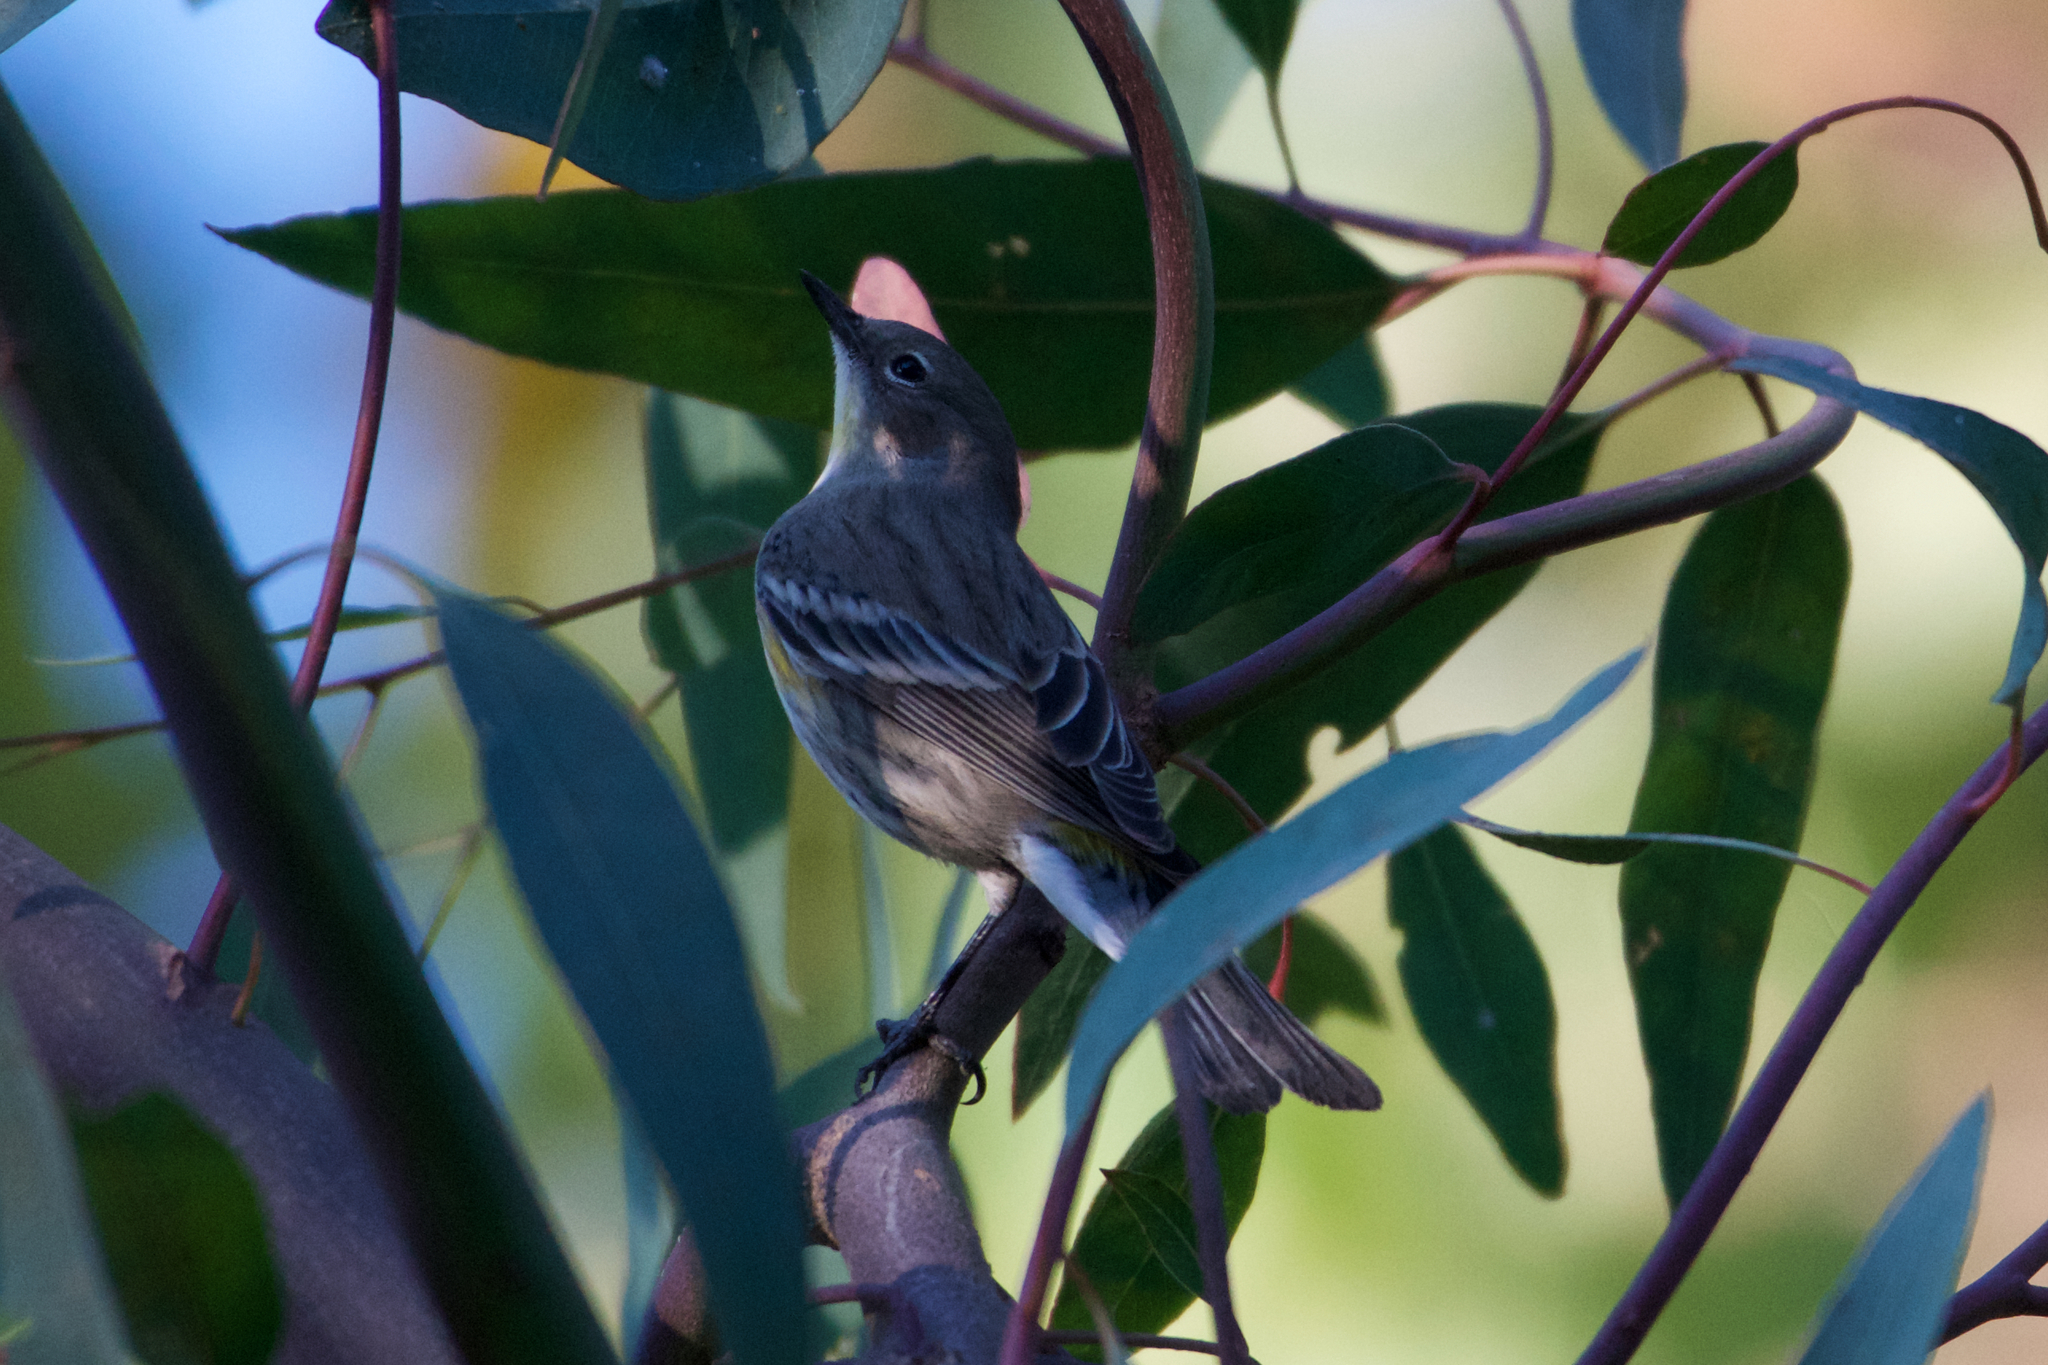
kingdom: Animalia
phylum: Chordata
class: Aves
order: Passeriformes
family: Parulidae
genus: Setophaga
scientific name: Setophaga coronata
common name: Myrtle warbler
